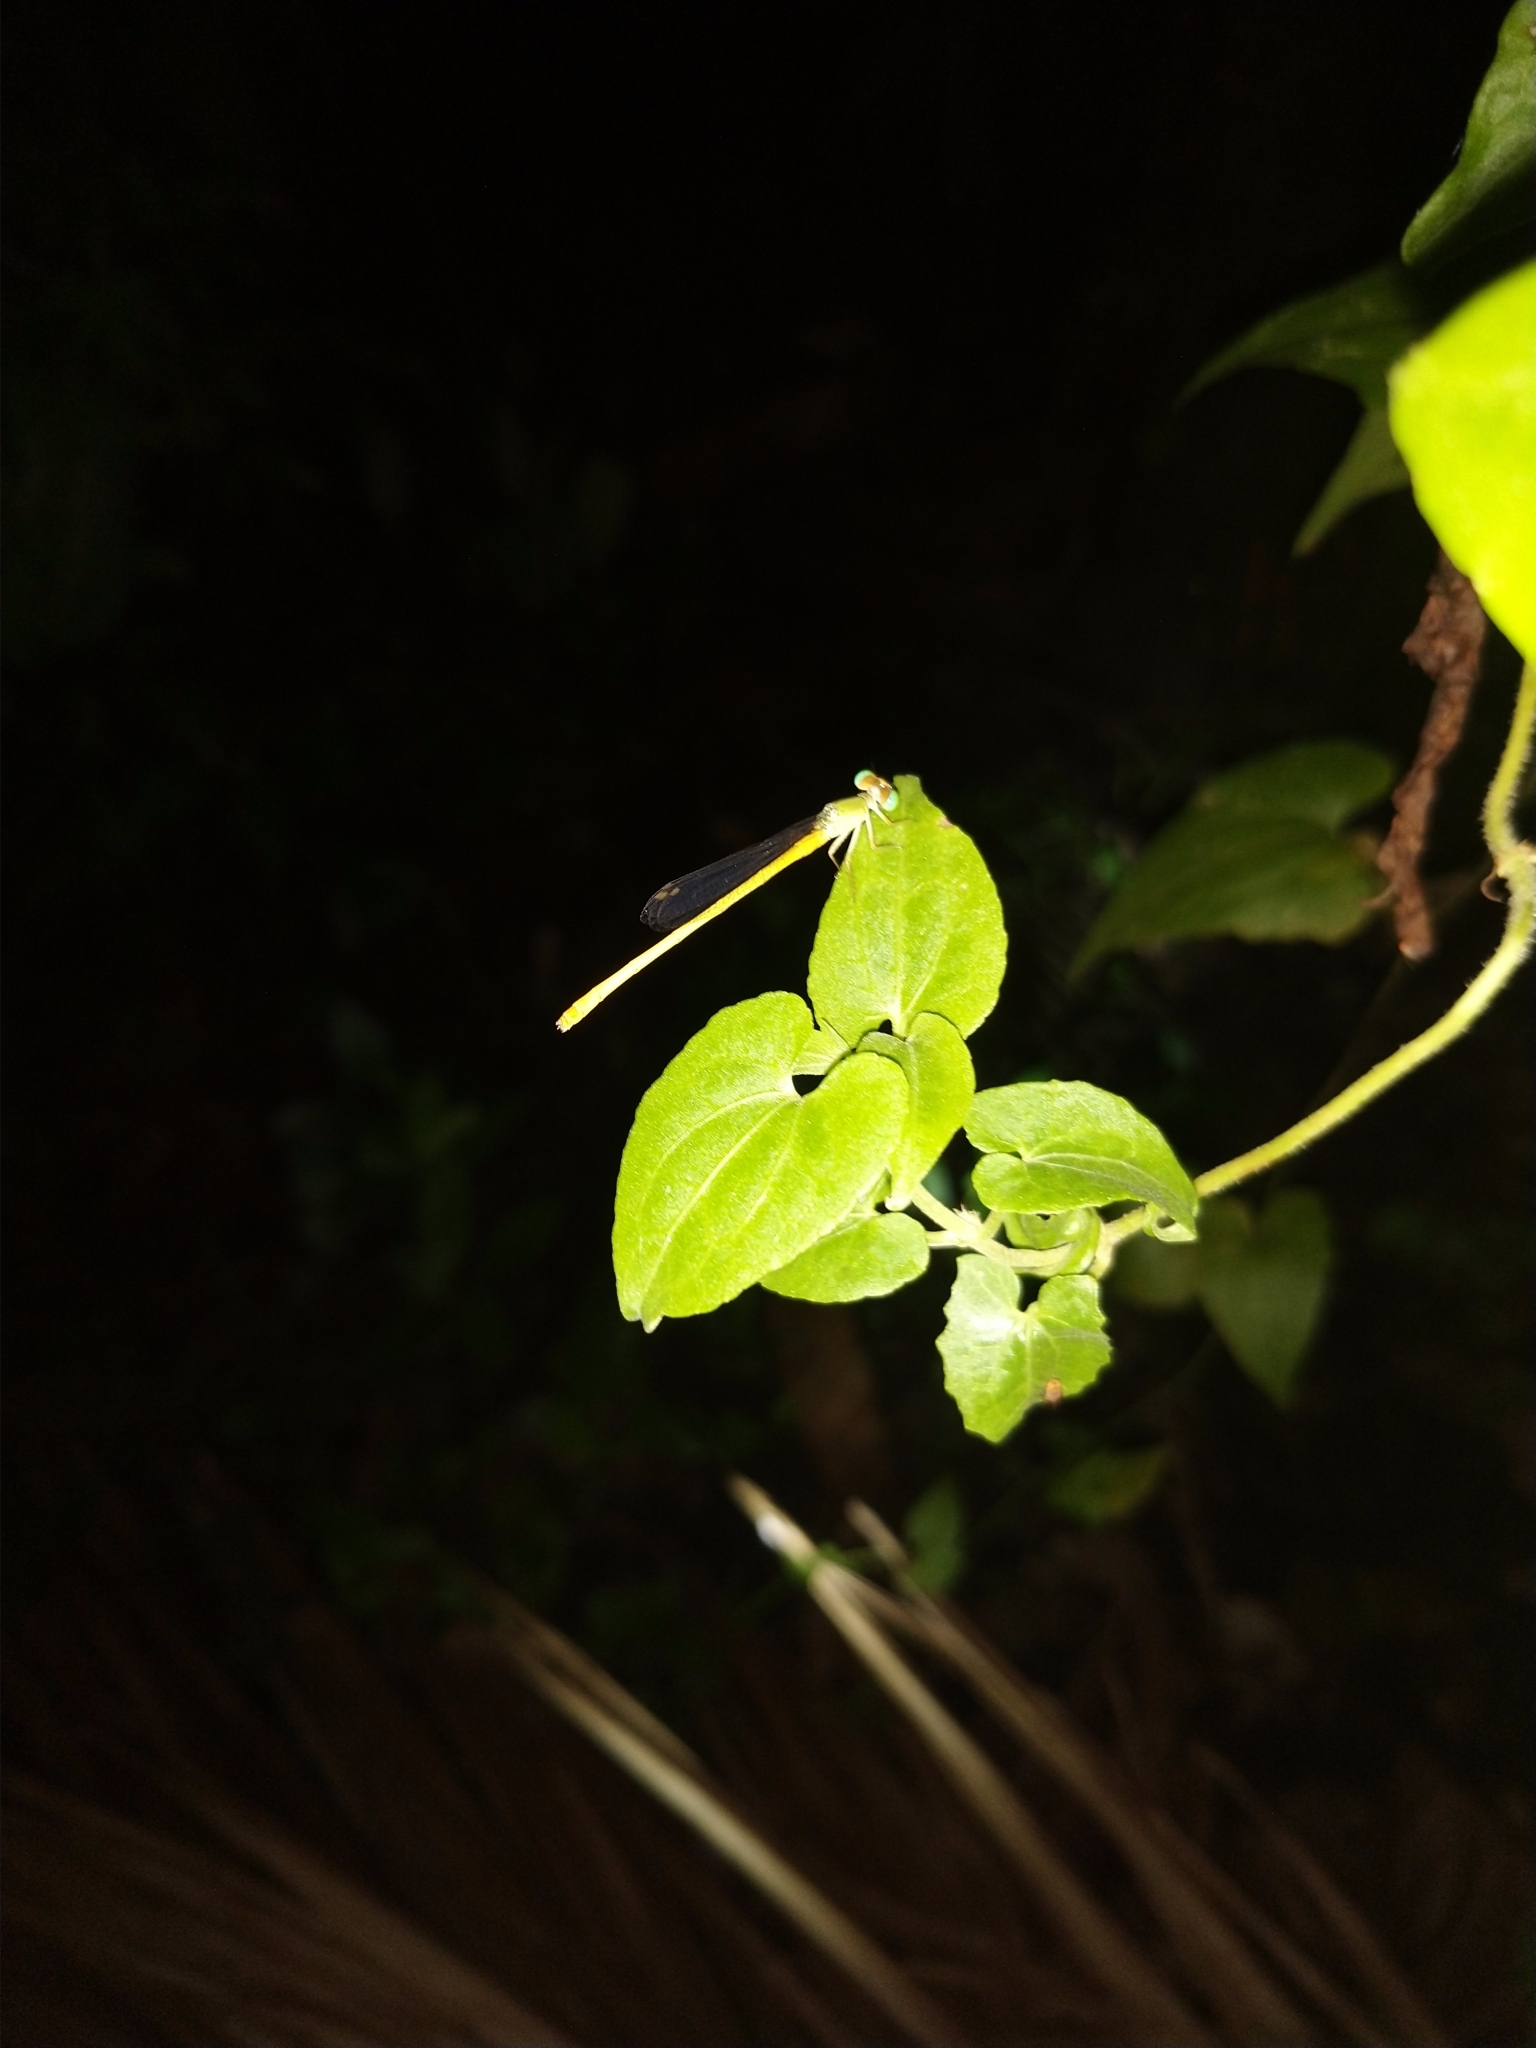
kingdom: Animalia
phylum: Arthropoda
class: Insecta
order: Odonata
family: Coenagrionidae
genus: Ceriagrion
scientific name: Ceriagrion coromandelianum
